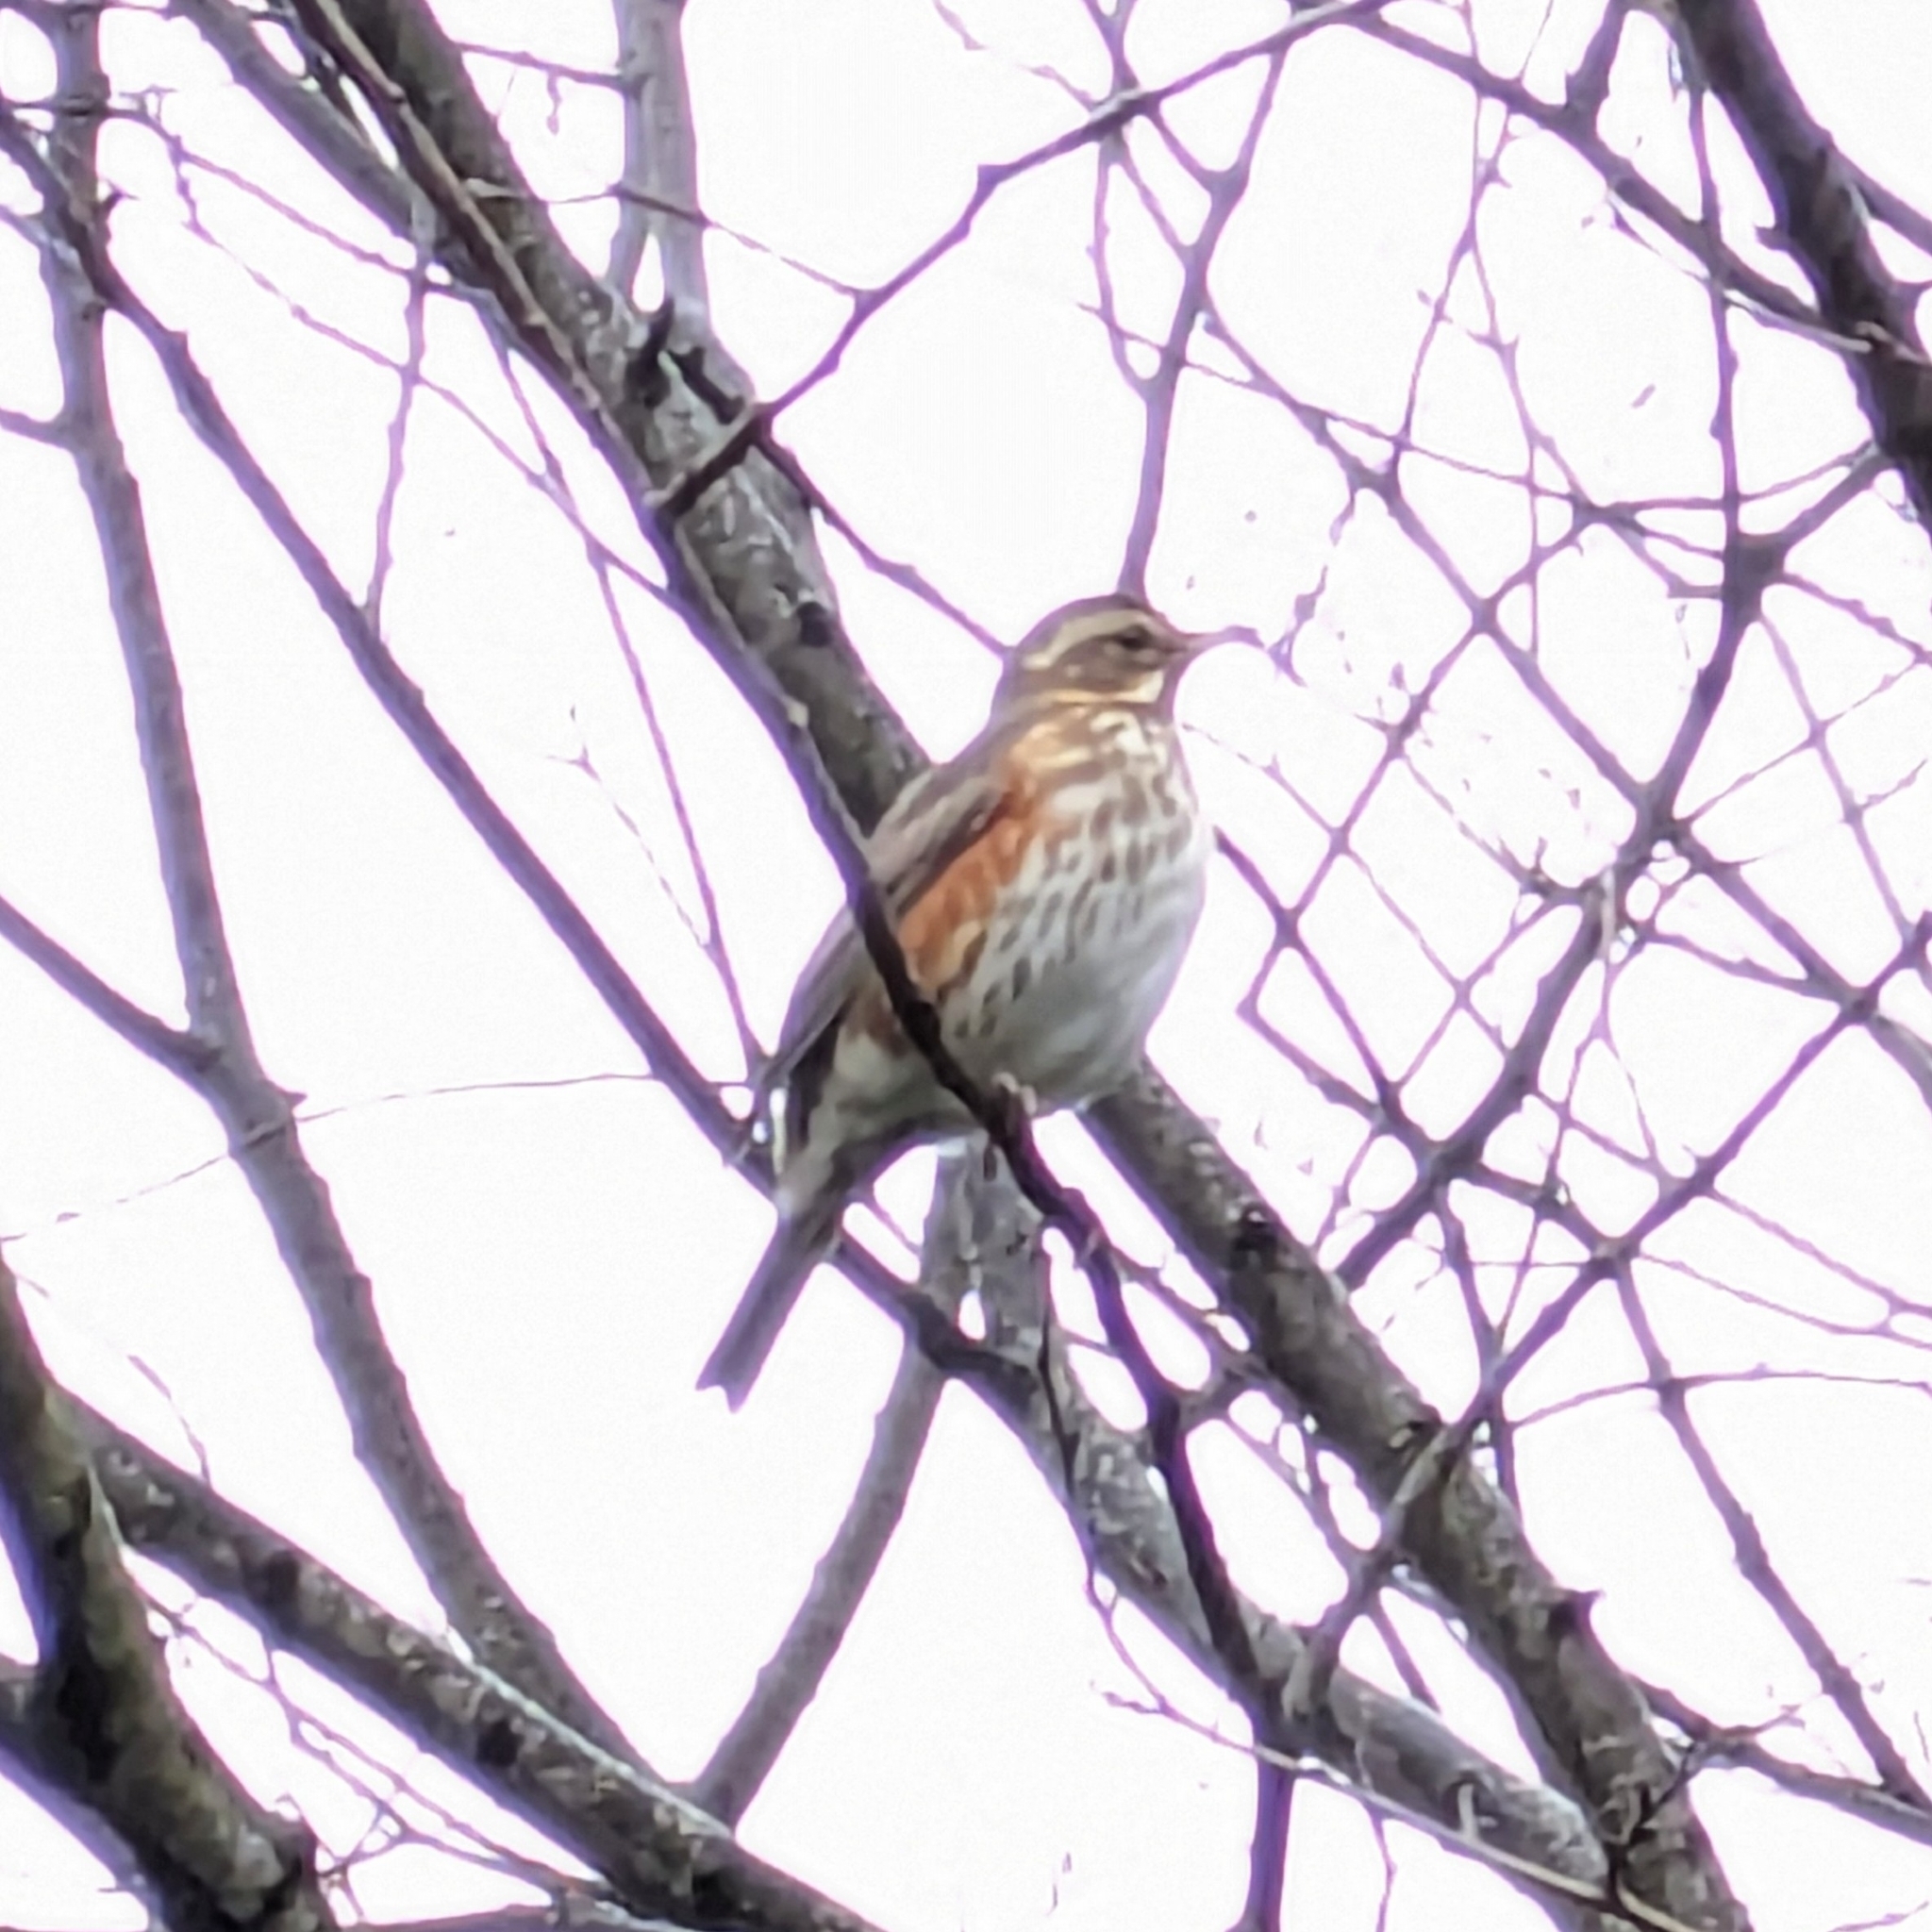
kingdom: Animalia
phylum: Chordata
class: Aves
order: Passeriformes
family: Turdidae
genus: Turdus
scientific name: Turdus iliacus
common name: Redwing
